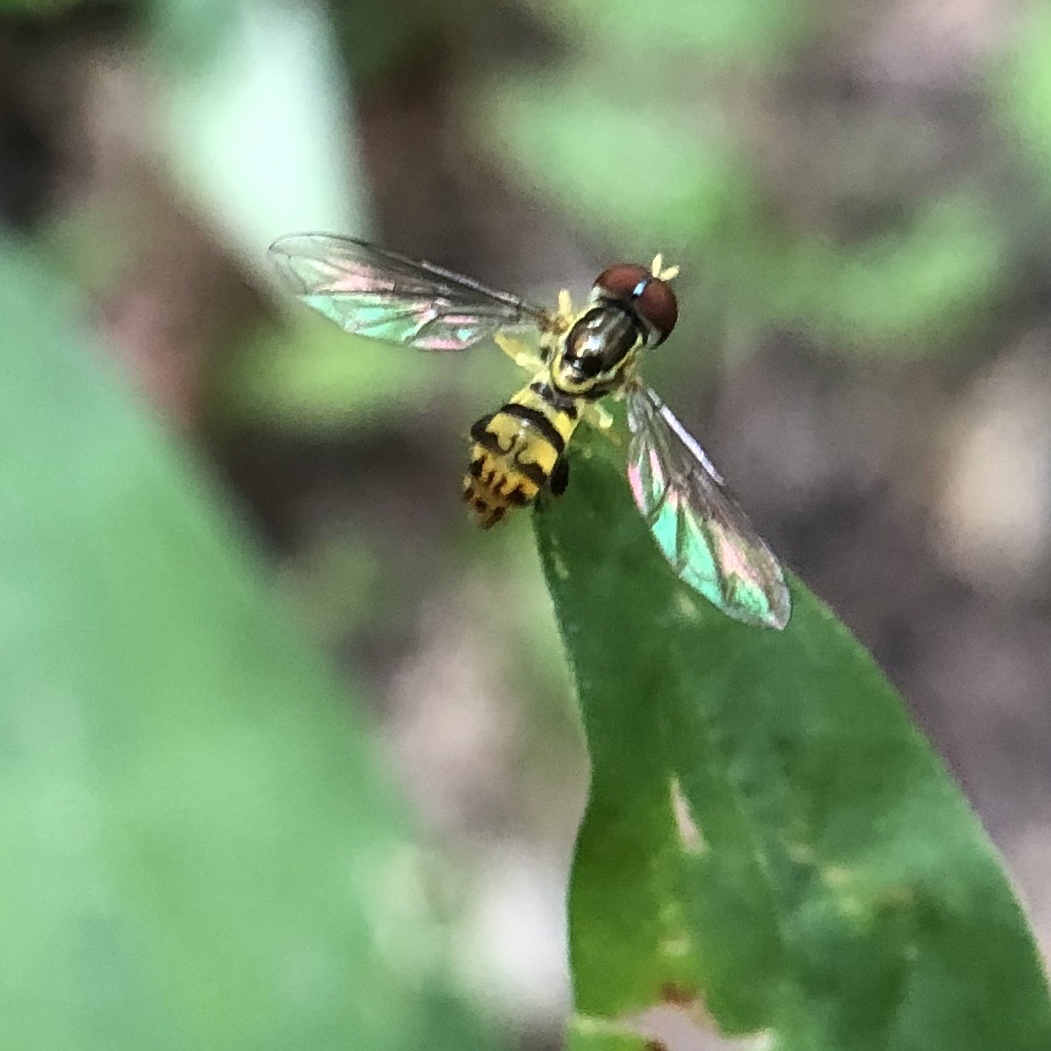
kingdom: Animalia
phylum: Arthropoda
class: Insecta
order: Diptera
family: Syrphidae
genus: Toxomerus
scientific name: Toxomerus geminatus
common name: Eastern calligrapher
